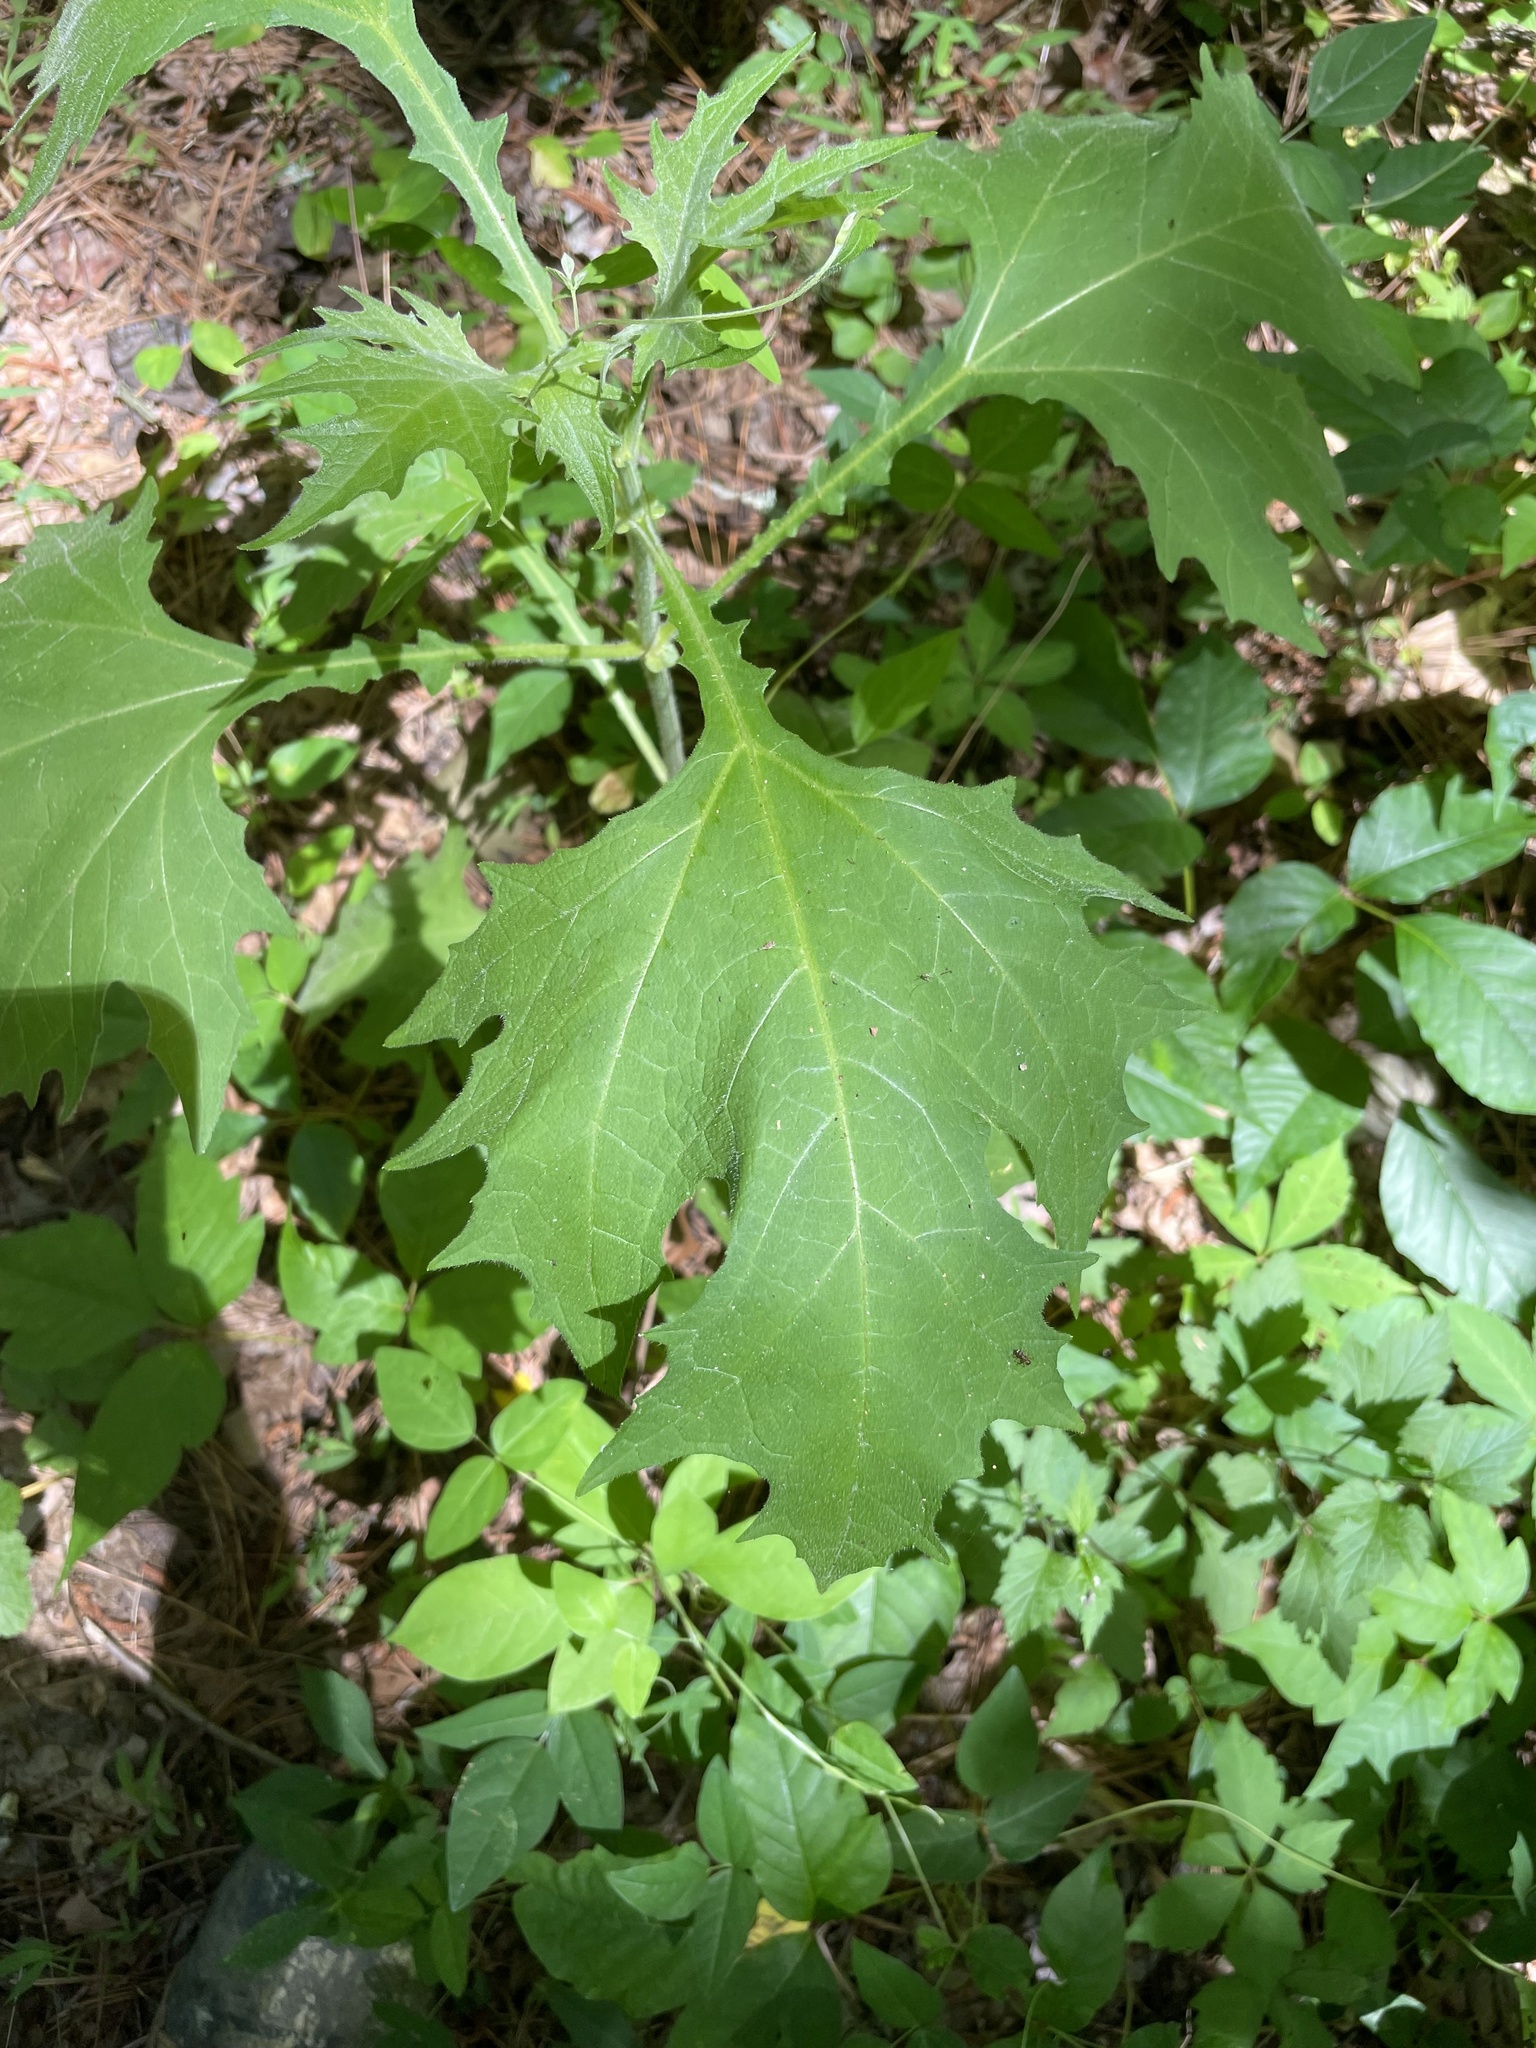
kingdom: Plantae
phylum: Tracheophyta
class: Magnoliopsida
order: Asterales
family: Asteraceae
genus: Smallanthus
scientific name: Smallanthus uvedalia
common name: Bear's-foot
